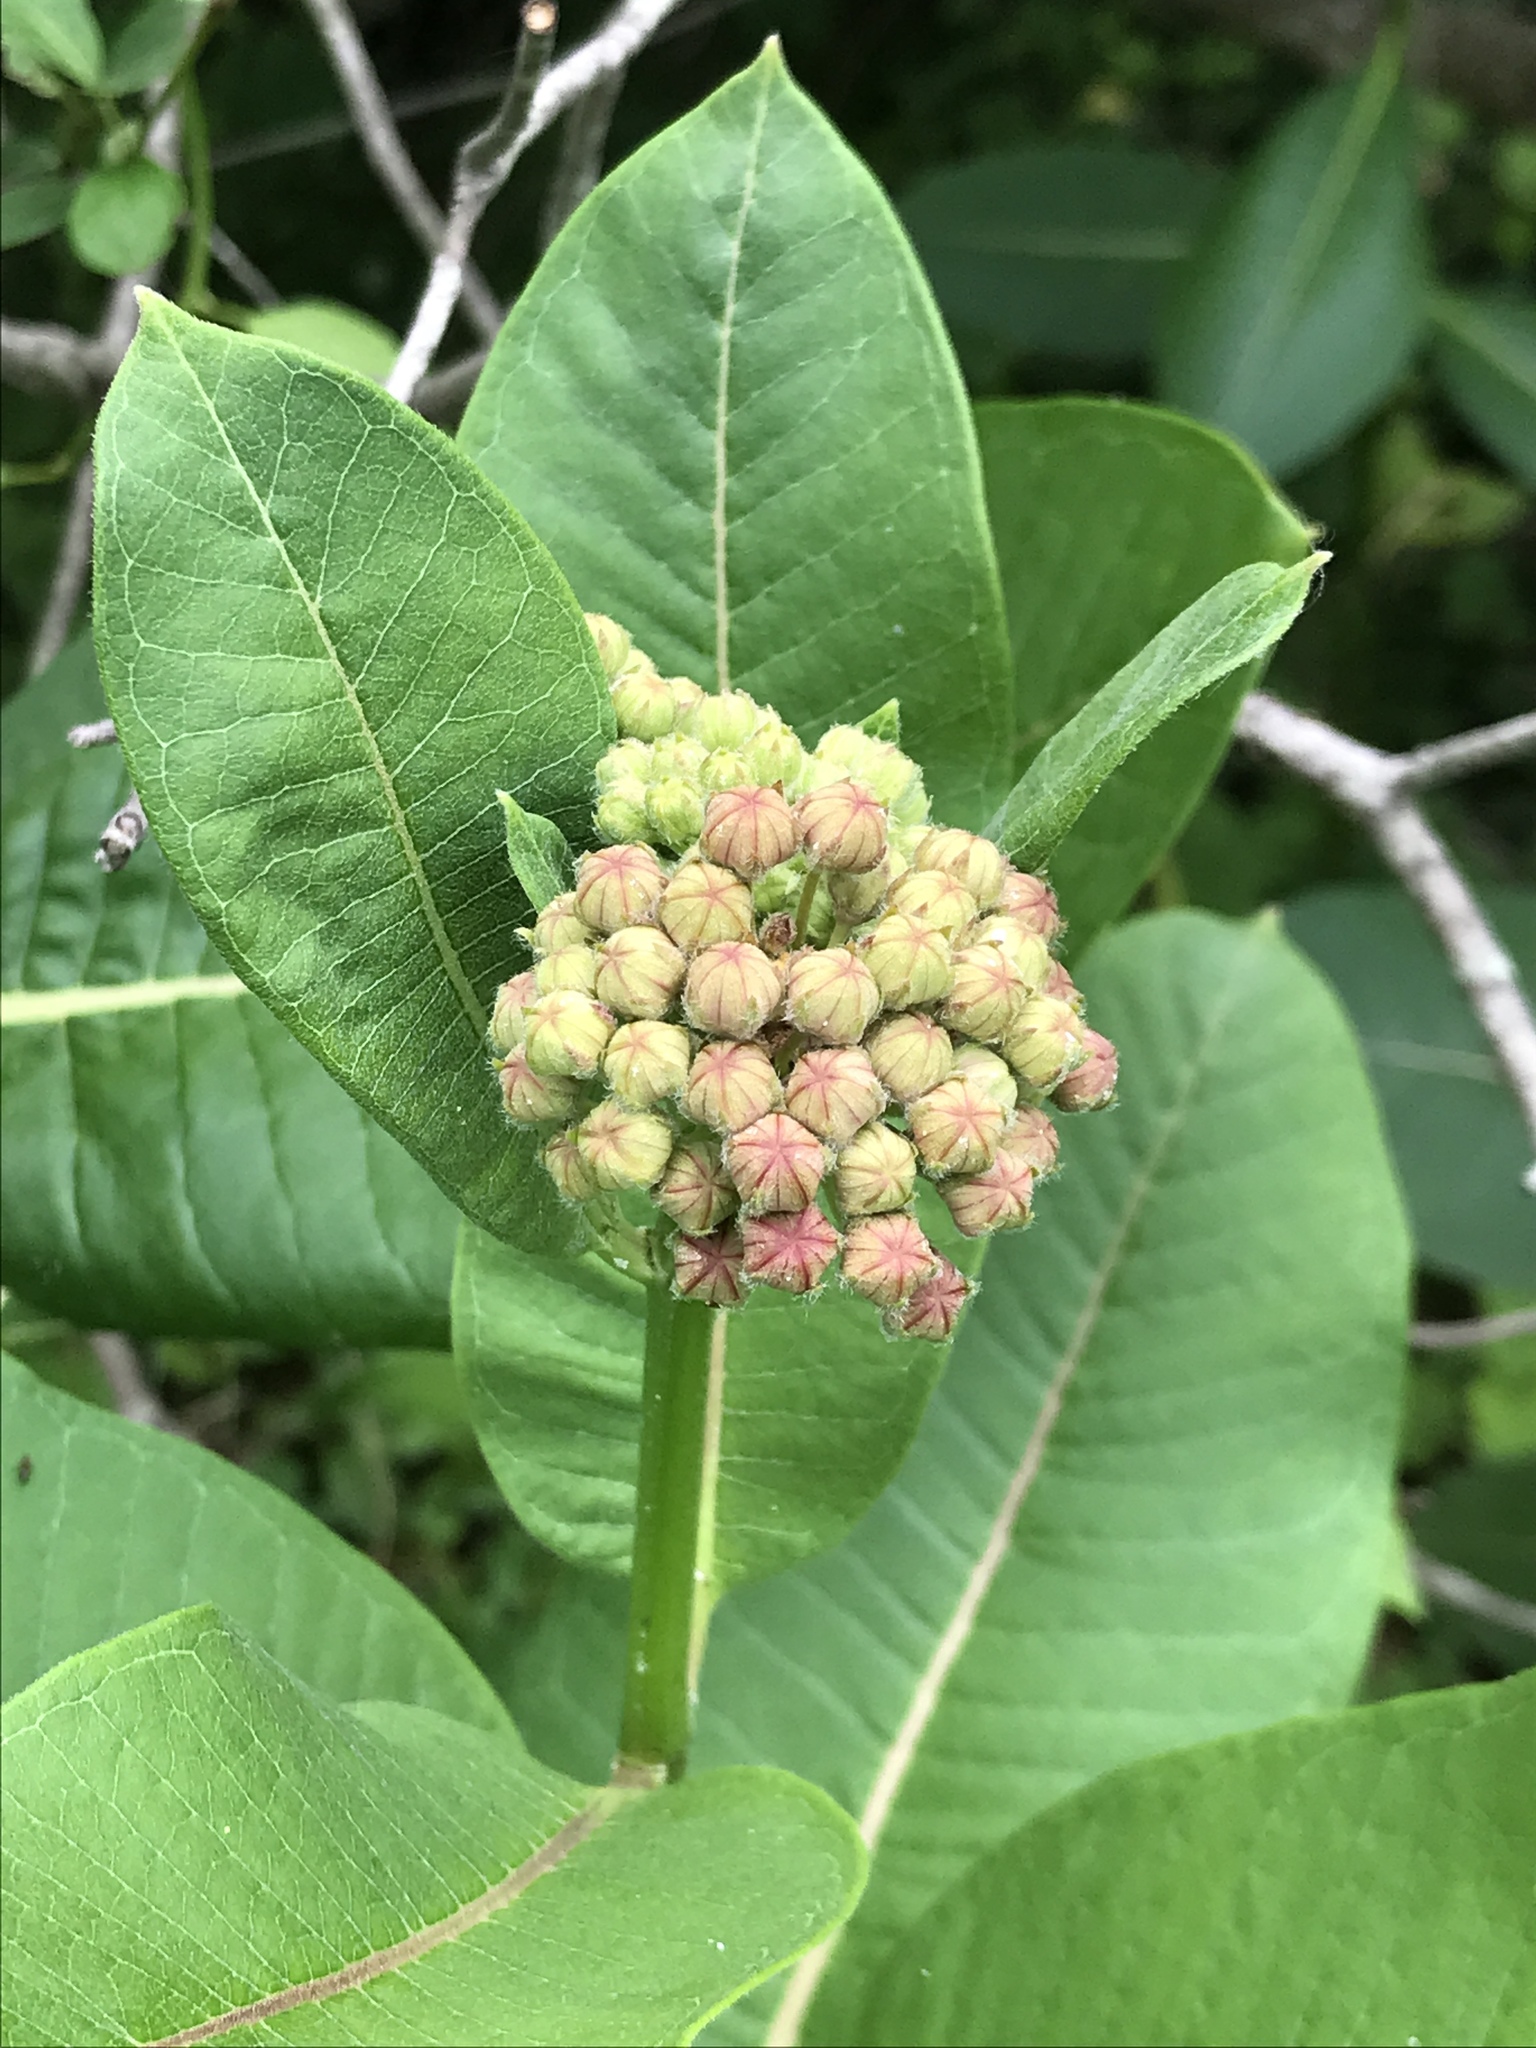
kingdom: Plantae
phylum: Tracheophyta
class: Magnoliopsida
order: Gentianales
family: Apocynaceae
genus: Asclepias
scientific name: Asclepias syriaca
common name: Common milkweed
